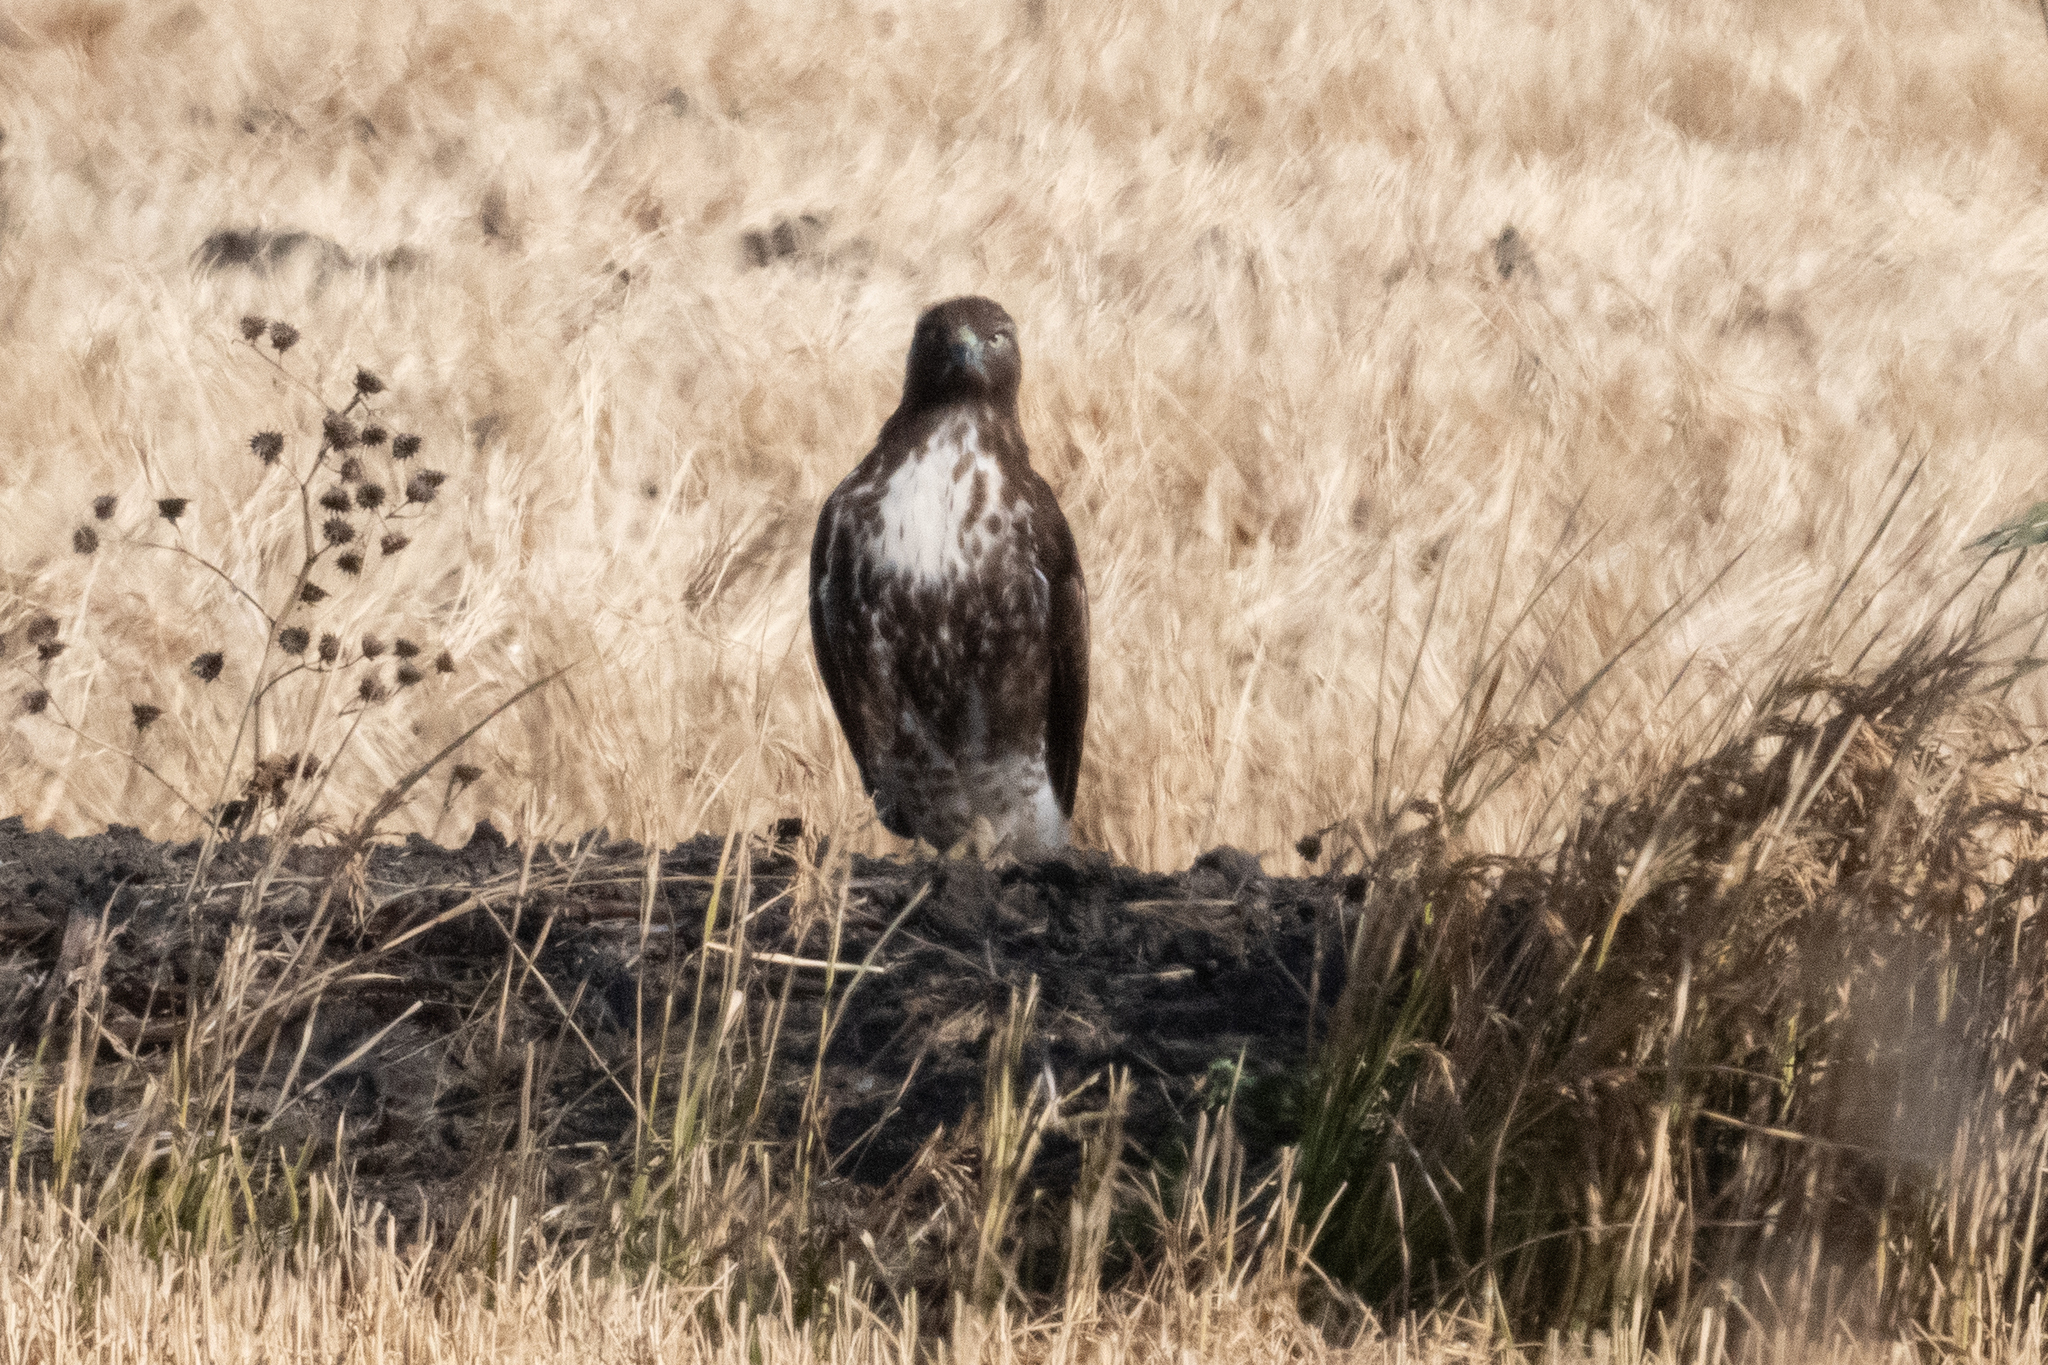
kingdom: Animalia
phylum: Chordata
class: Aves
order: Accipitriformes
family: Accipitridae
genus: Buteo
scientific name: Buteo jamaicensis
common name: Red-tailed hawk
